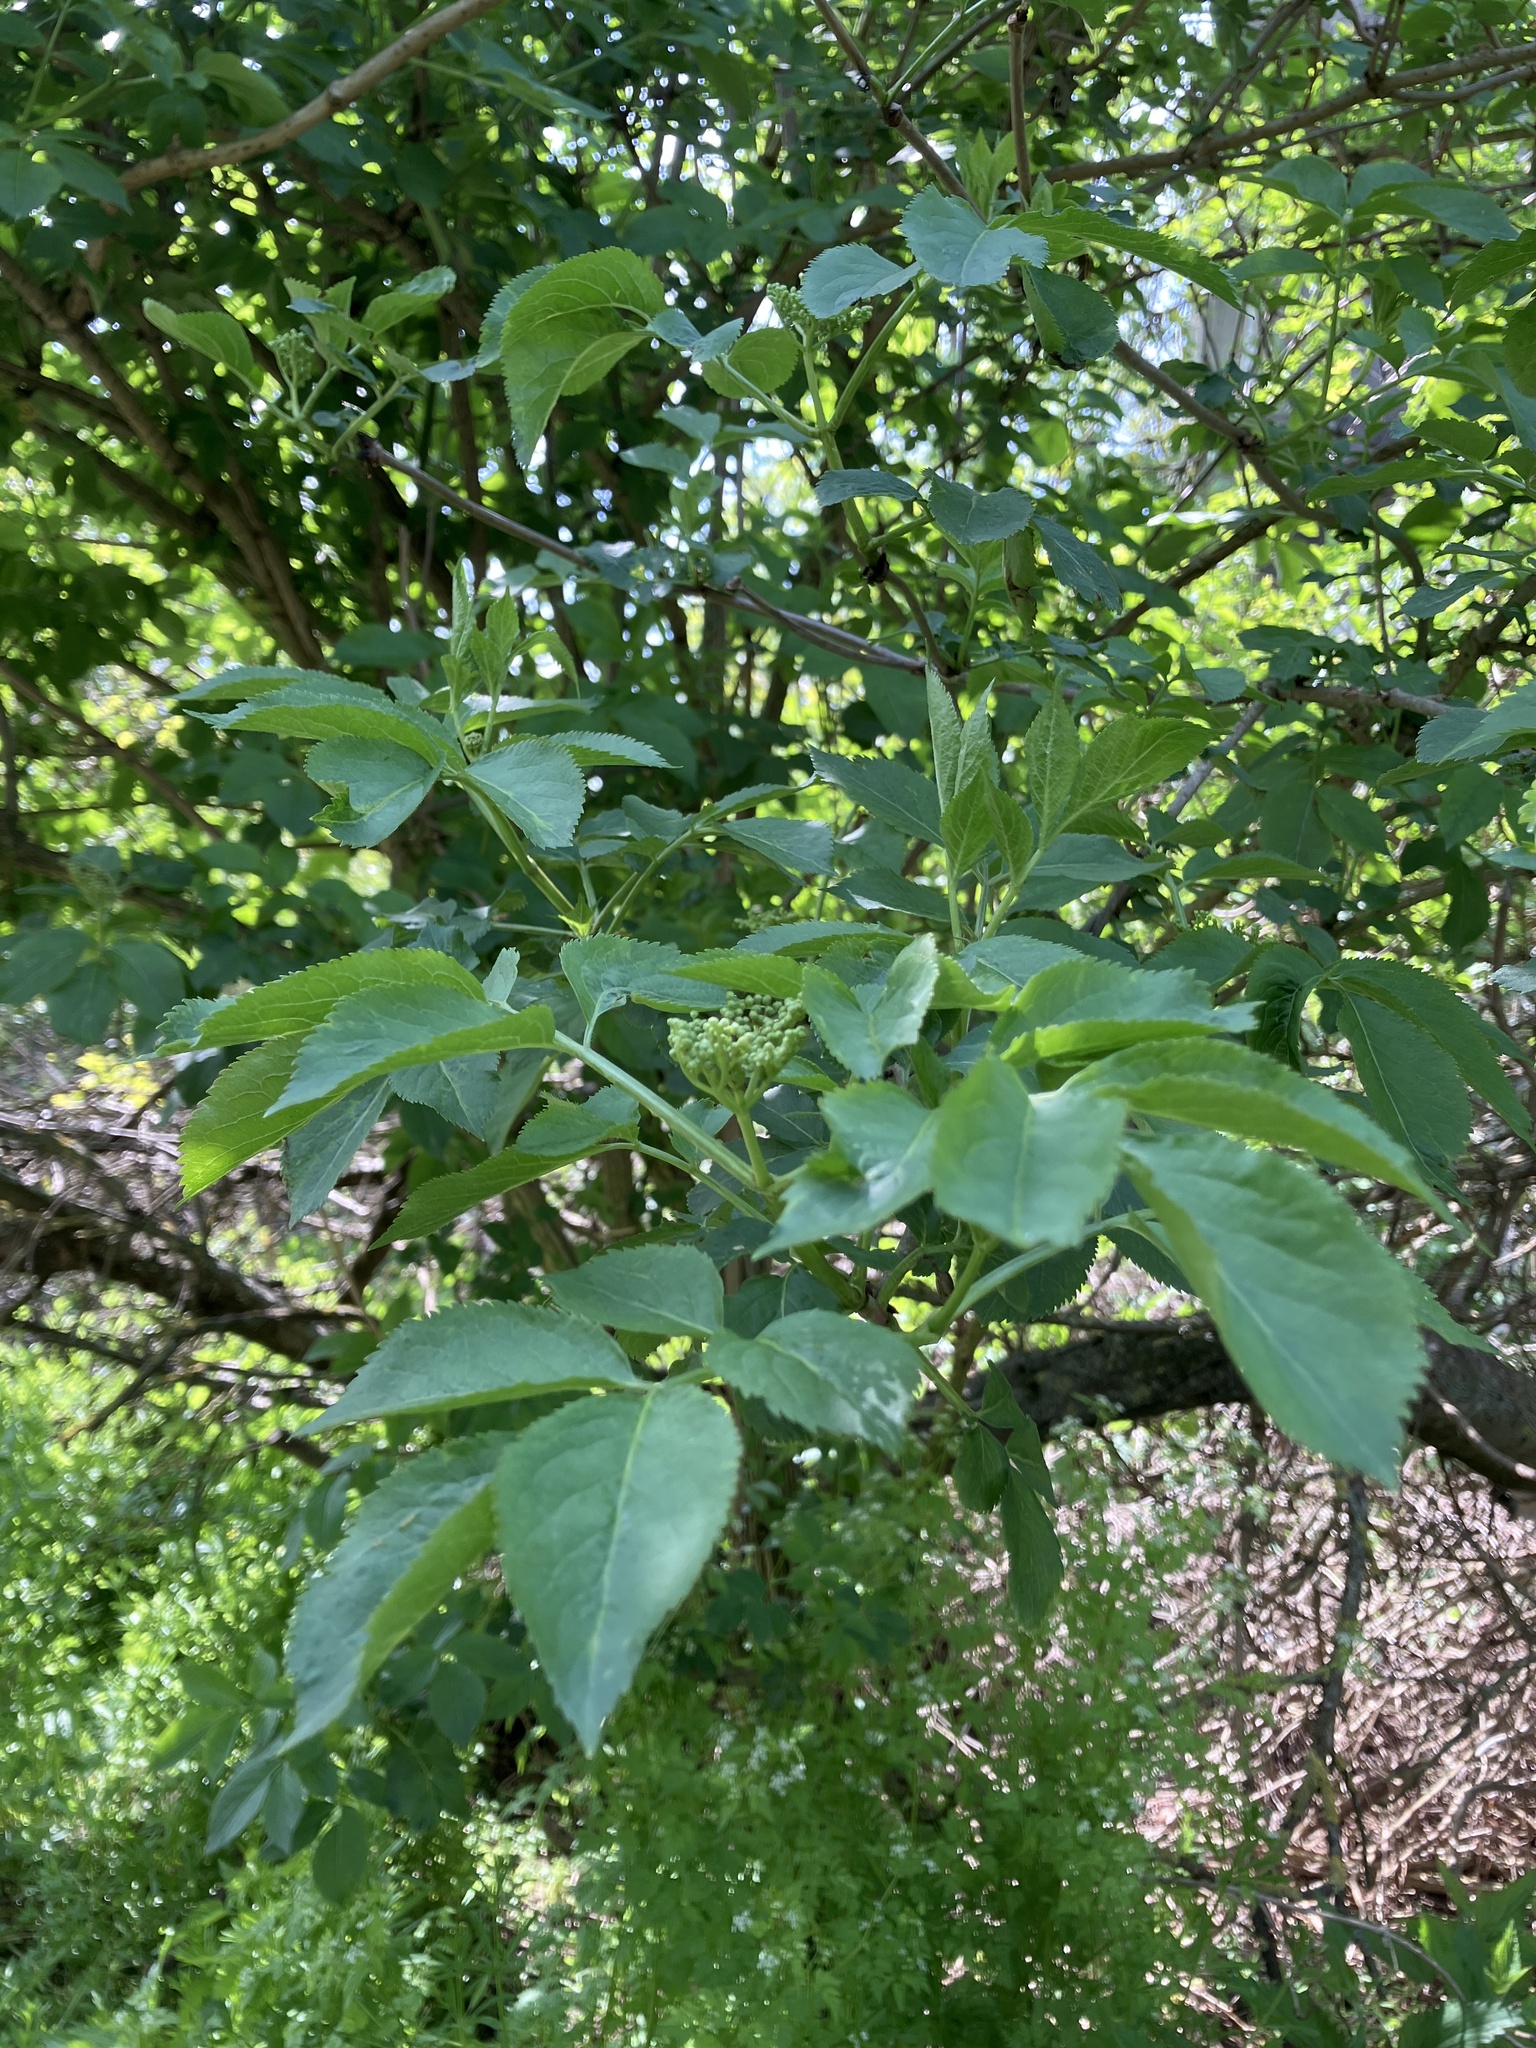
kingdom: Plantae
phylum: Tracheophyta
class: Magnoliopsida
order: Dipsacales
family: Viburnaceae
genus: Sambucus
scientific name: Sambucus nigra
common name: Elder
